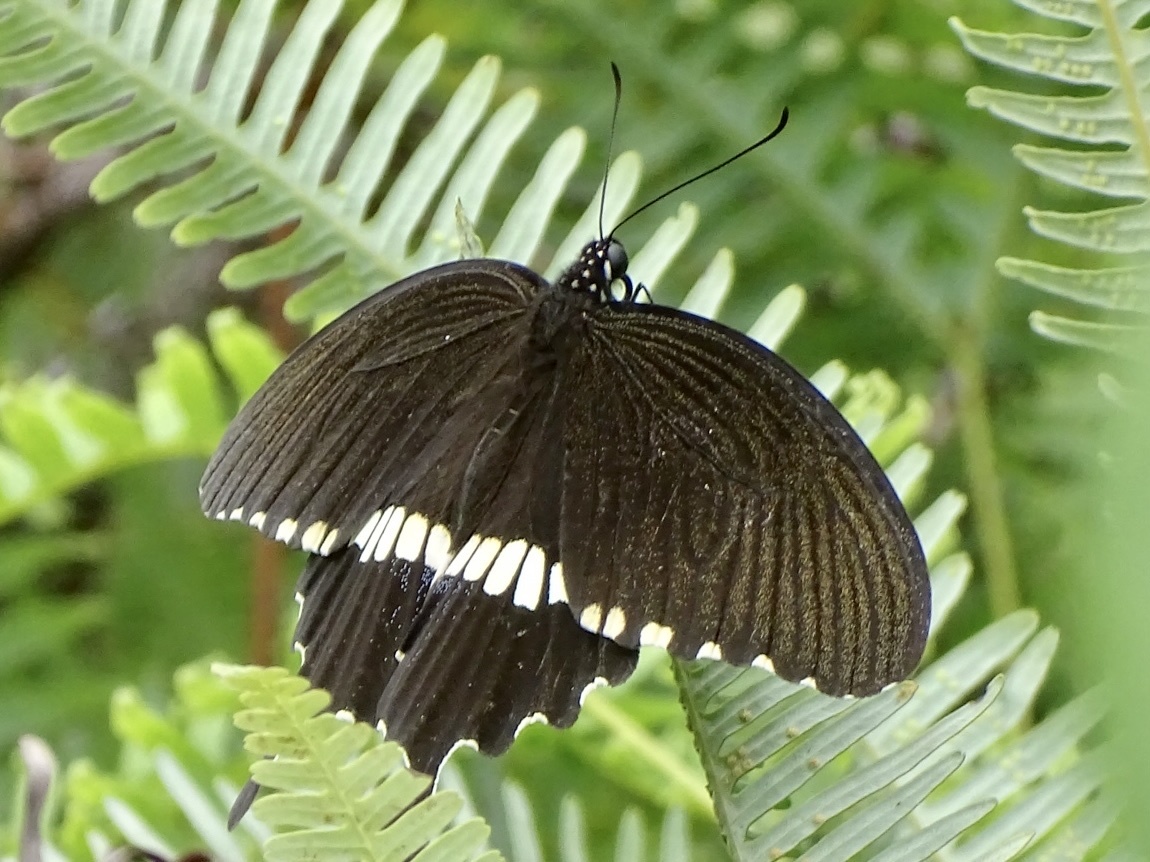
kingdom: Animalia
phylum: Arthropoda
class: Insecta
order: Lepidoptera
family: Papilionidae
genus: Papilio
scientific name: Papilio polytes
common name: Common mormon
